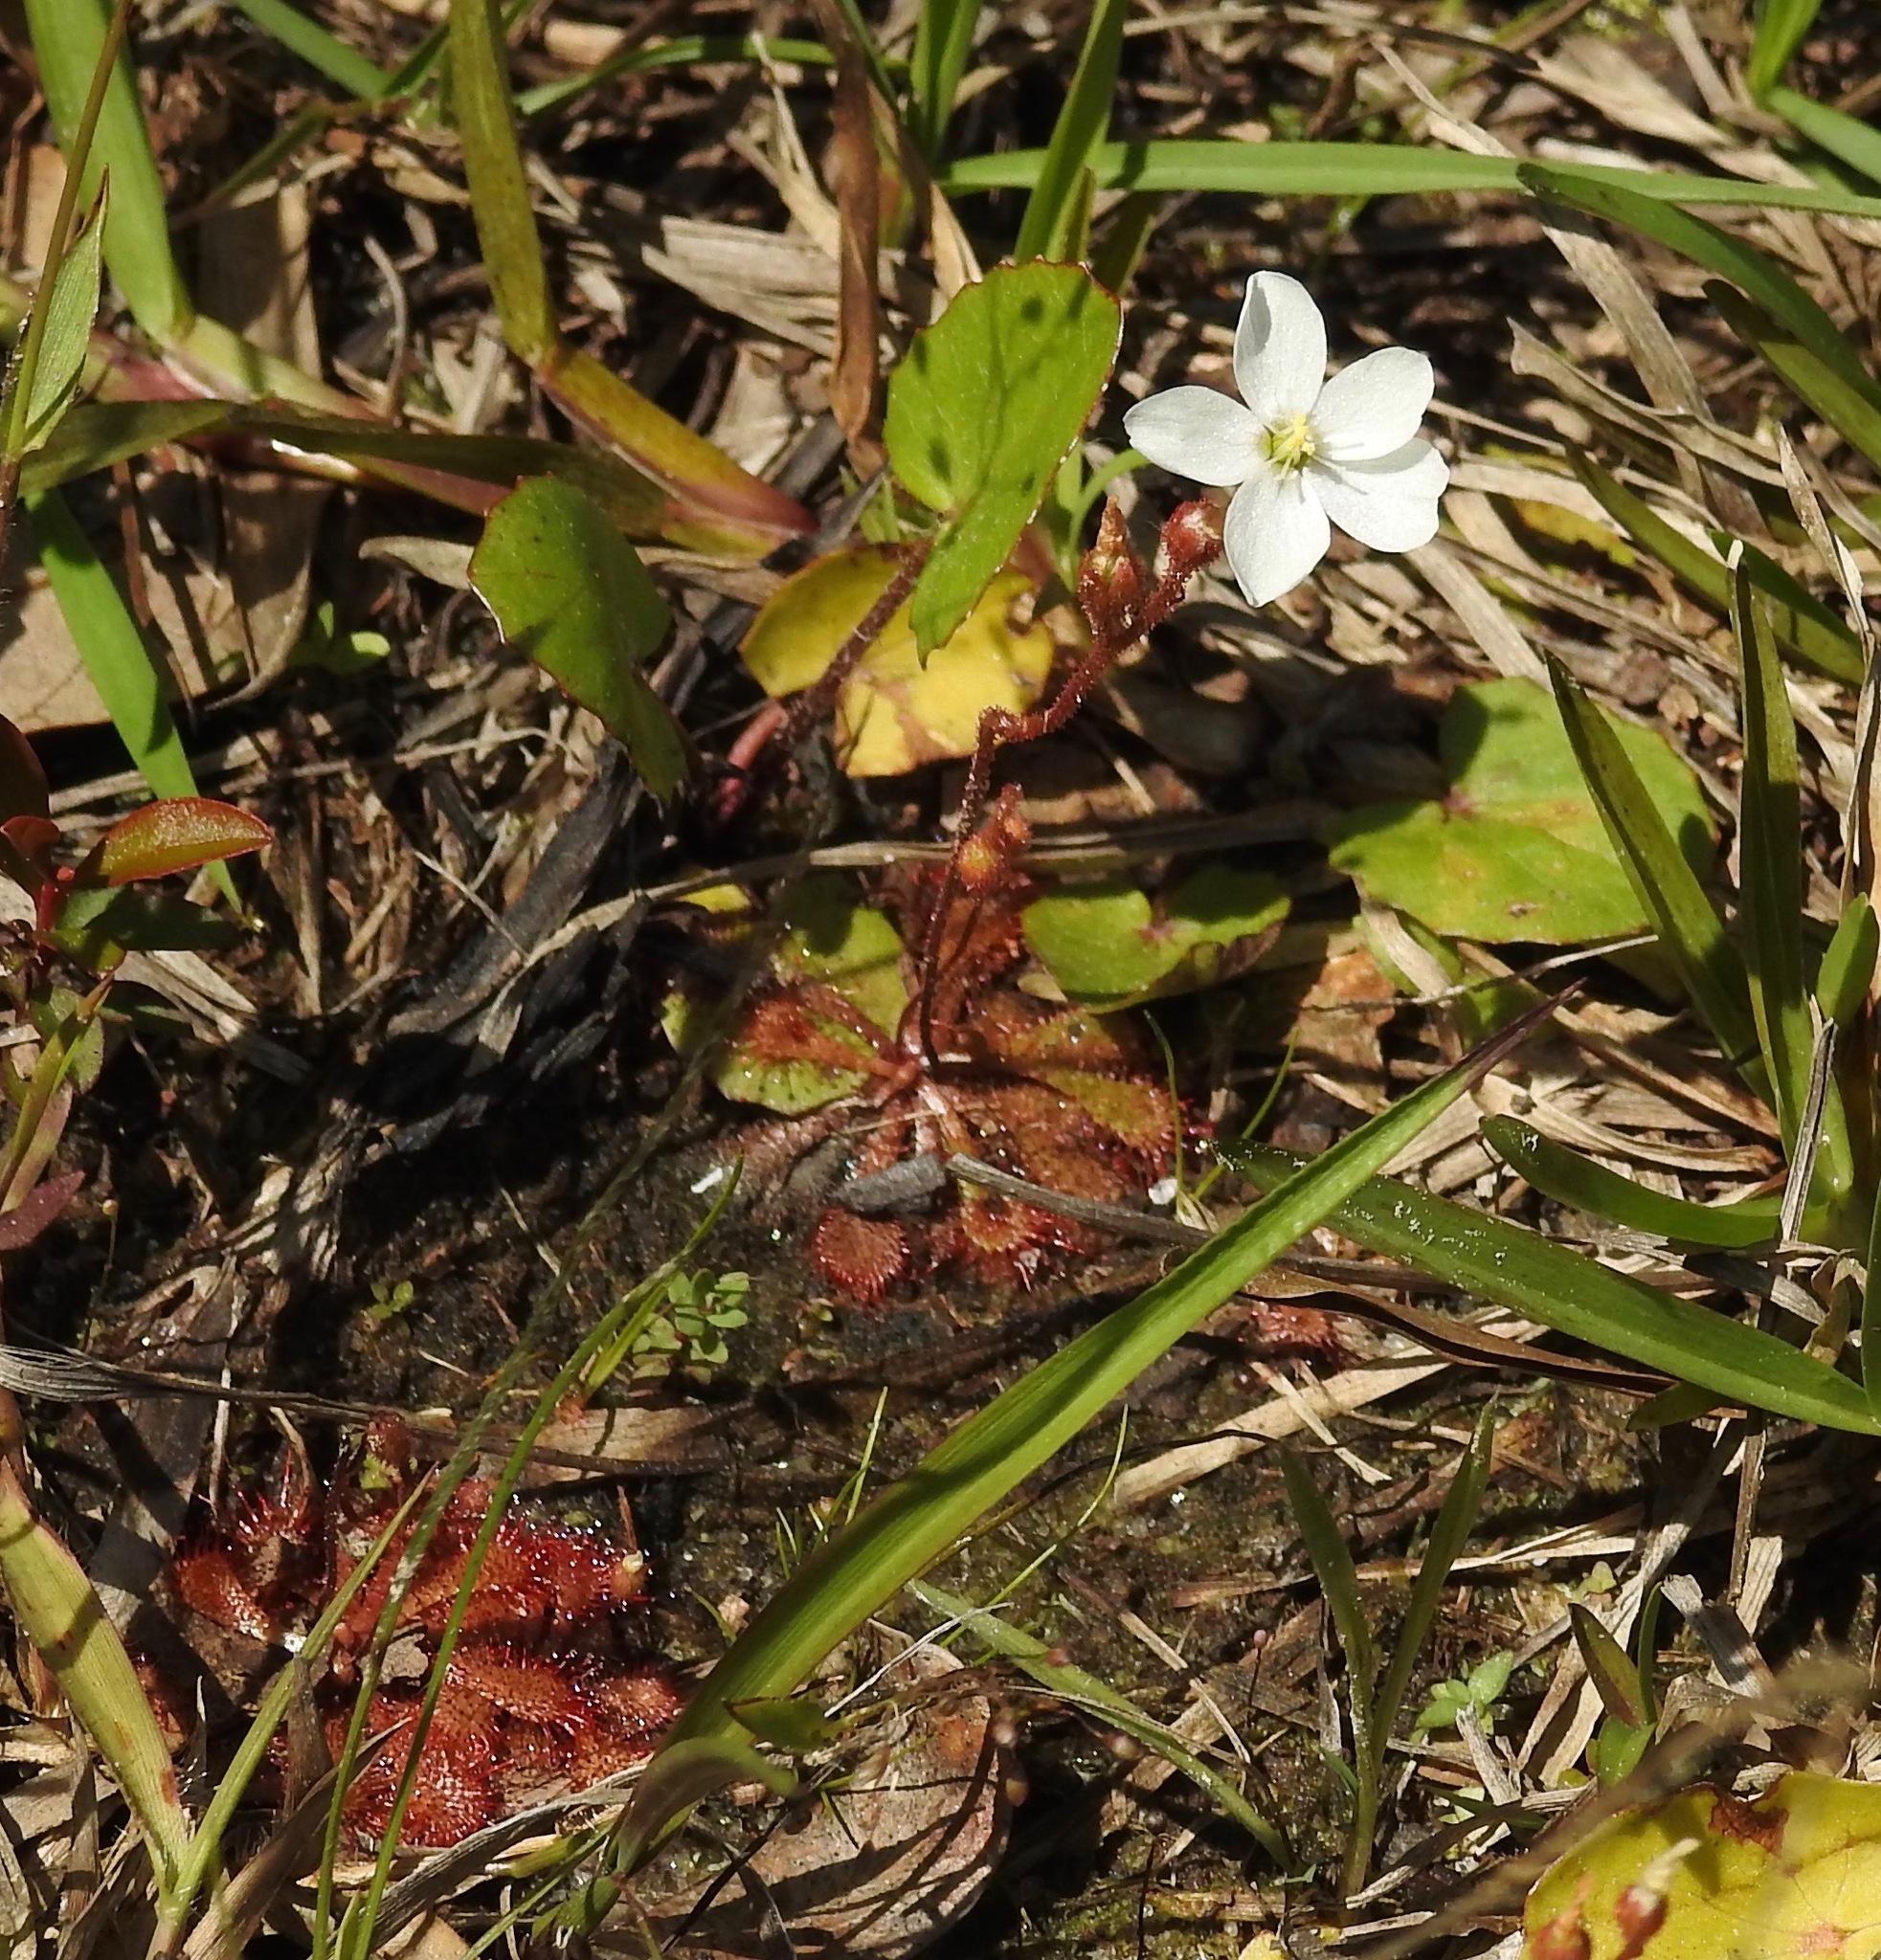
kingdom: Plantae
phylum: Tracheophyta
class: Magnoliopsida
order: Caryophyllales
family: Droseraceae
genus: Drosera
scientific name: Drosera brevifolia
